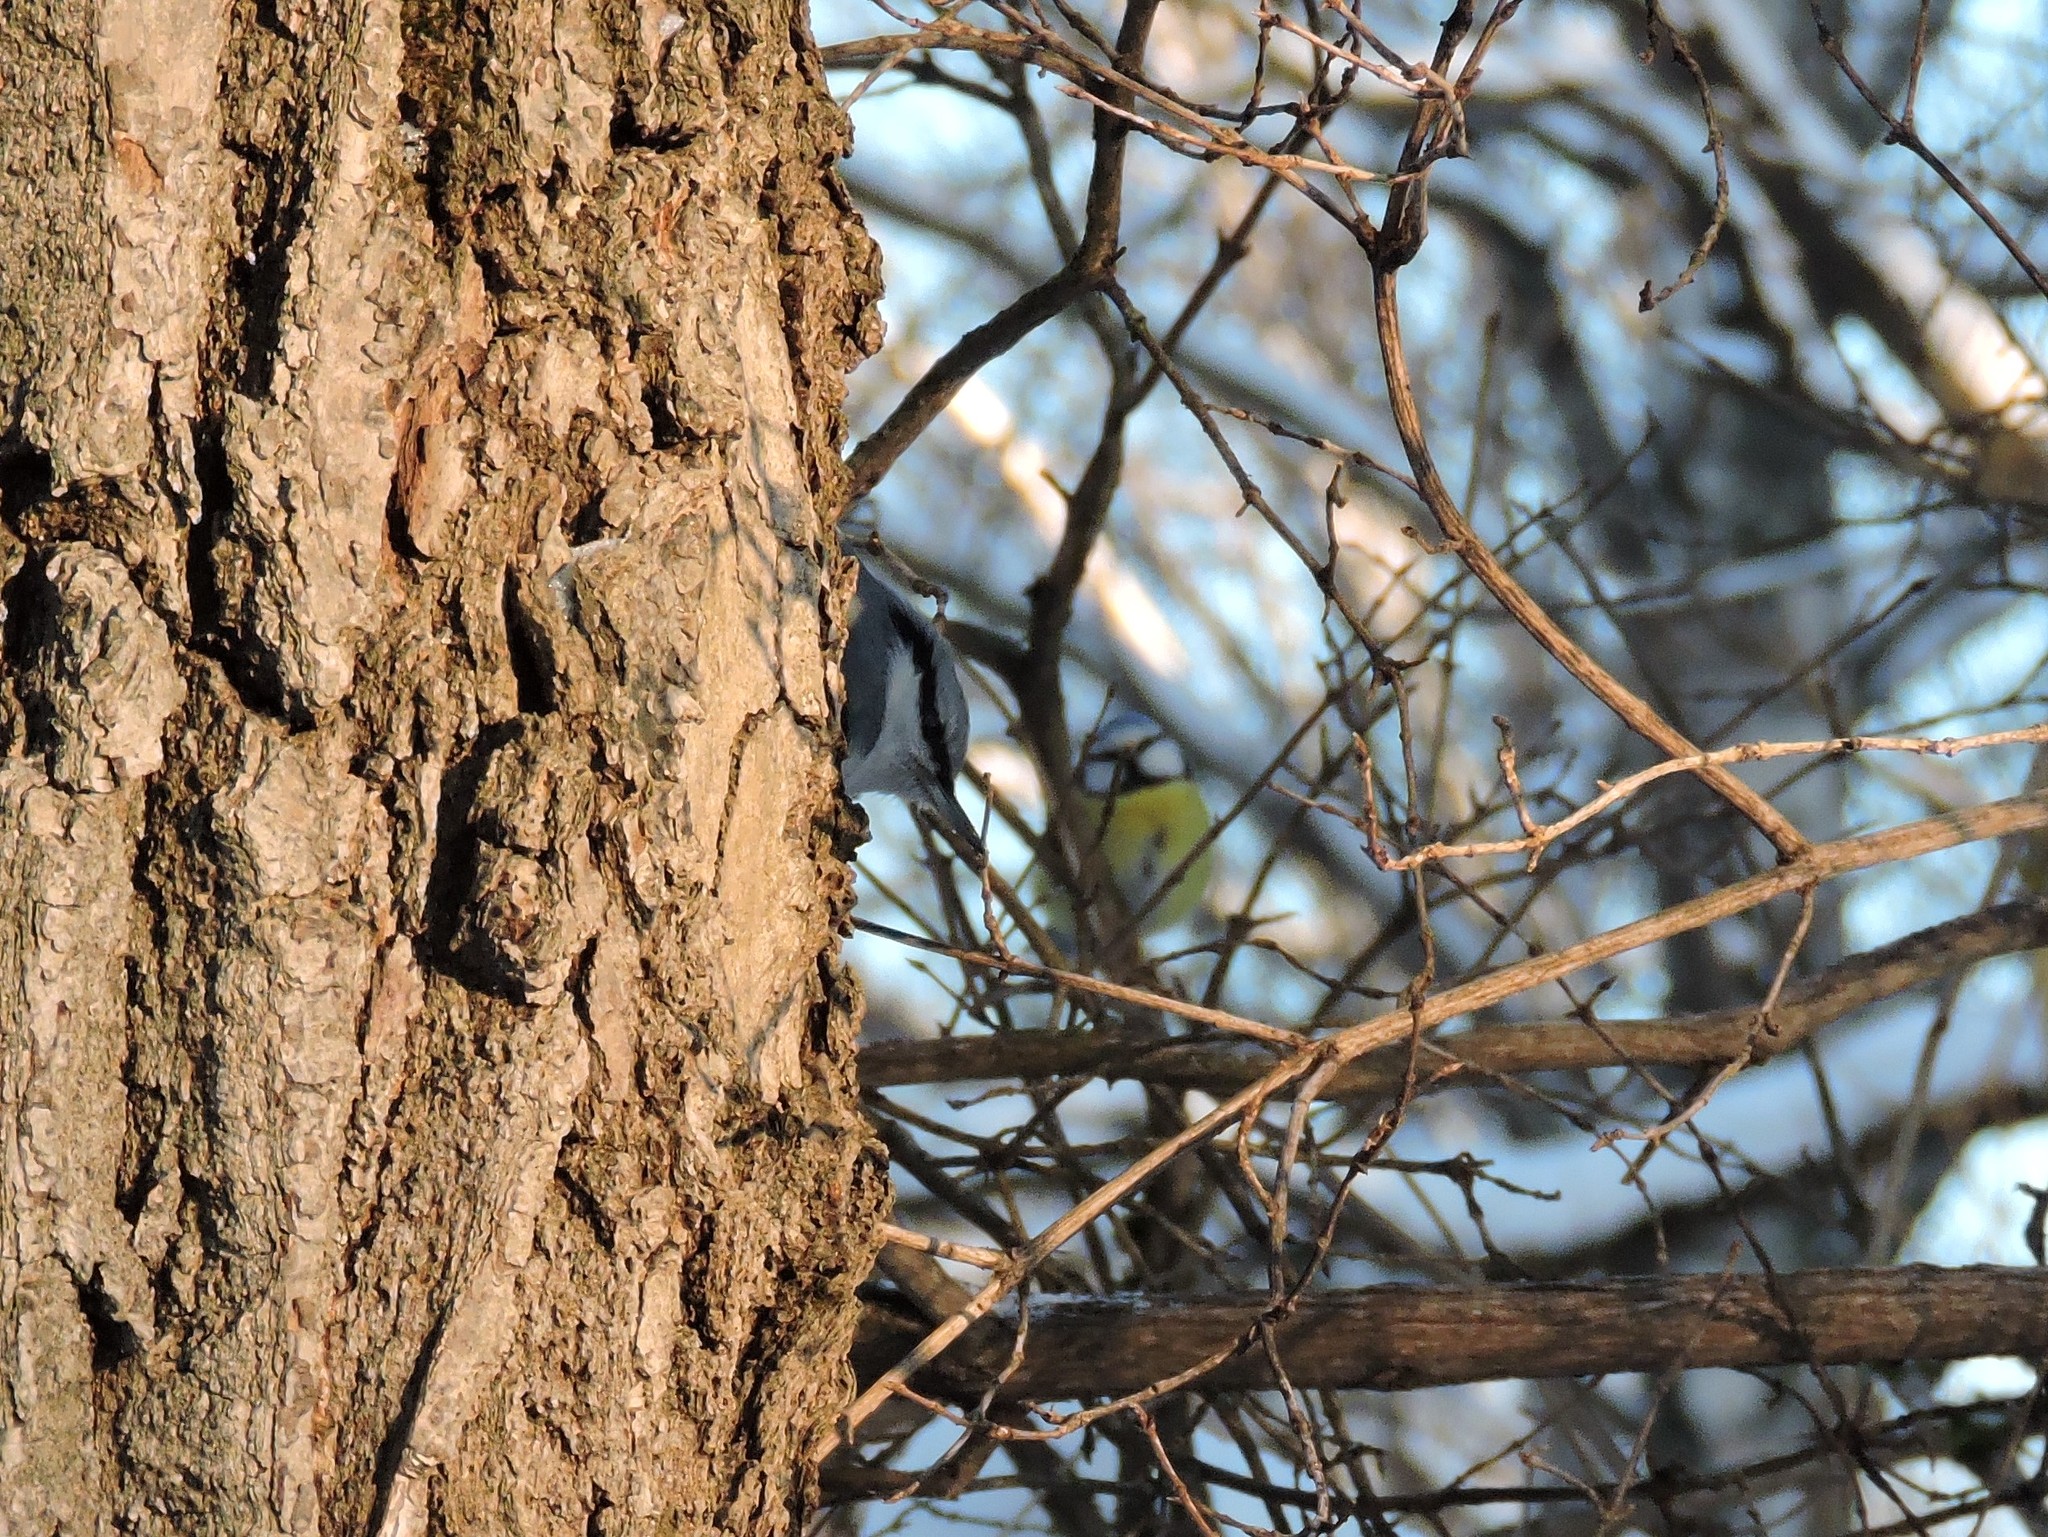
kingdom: Animalia
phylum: Chordata
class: Aves
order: Passeriformes
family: Sittidae
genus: Sitta
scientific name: Sitta europaea
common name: Eurasian nuthatch
